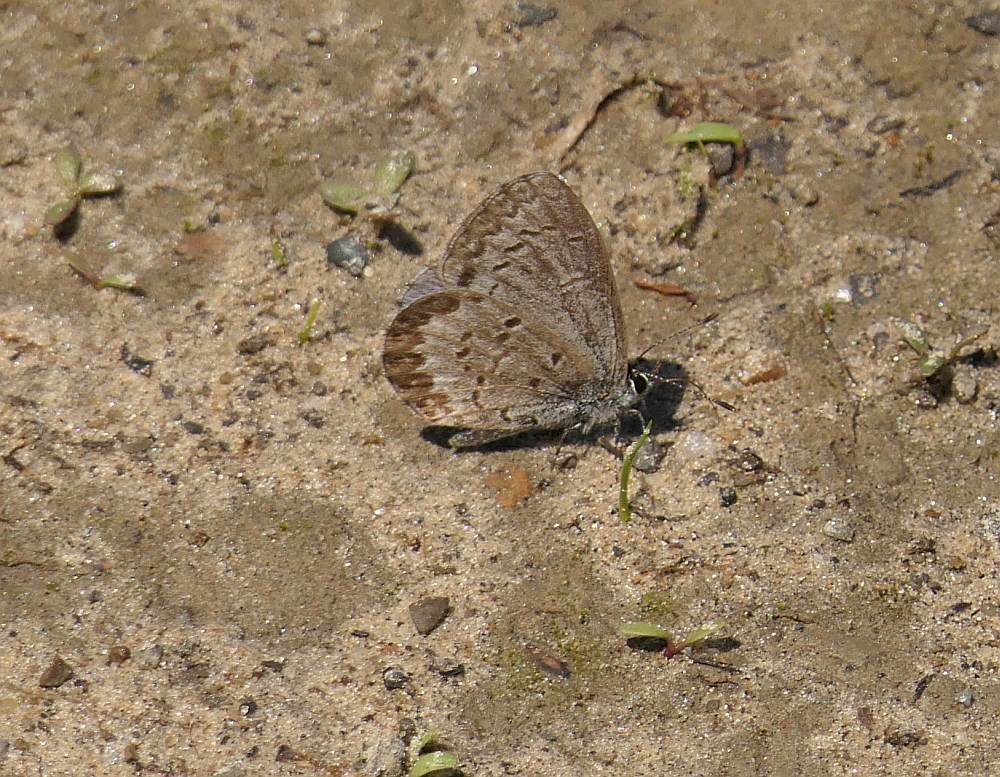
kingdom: Animalia
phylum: Arthropoda
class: Insecta
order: Lepidoptera
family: Lycaenidae
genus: Celastrina
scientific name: Celastrina lucia
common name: Lucia azure
